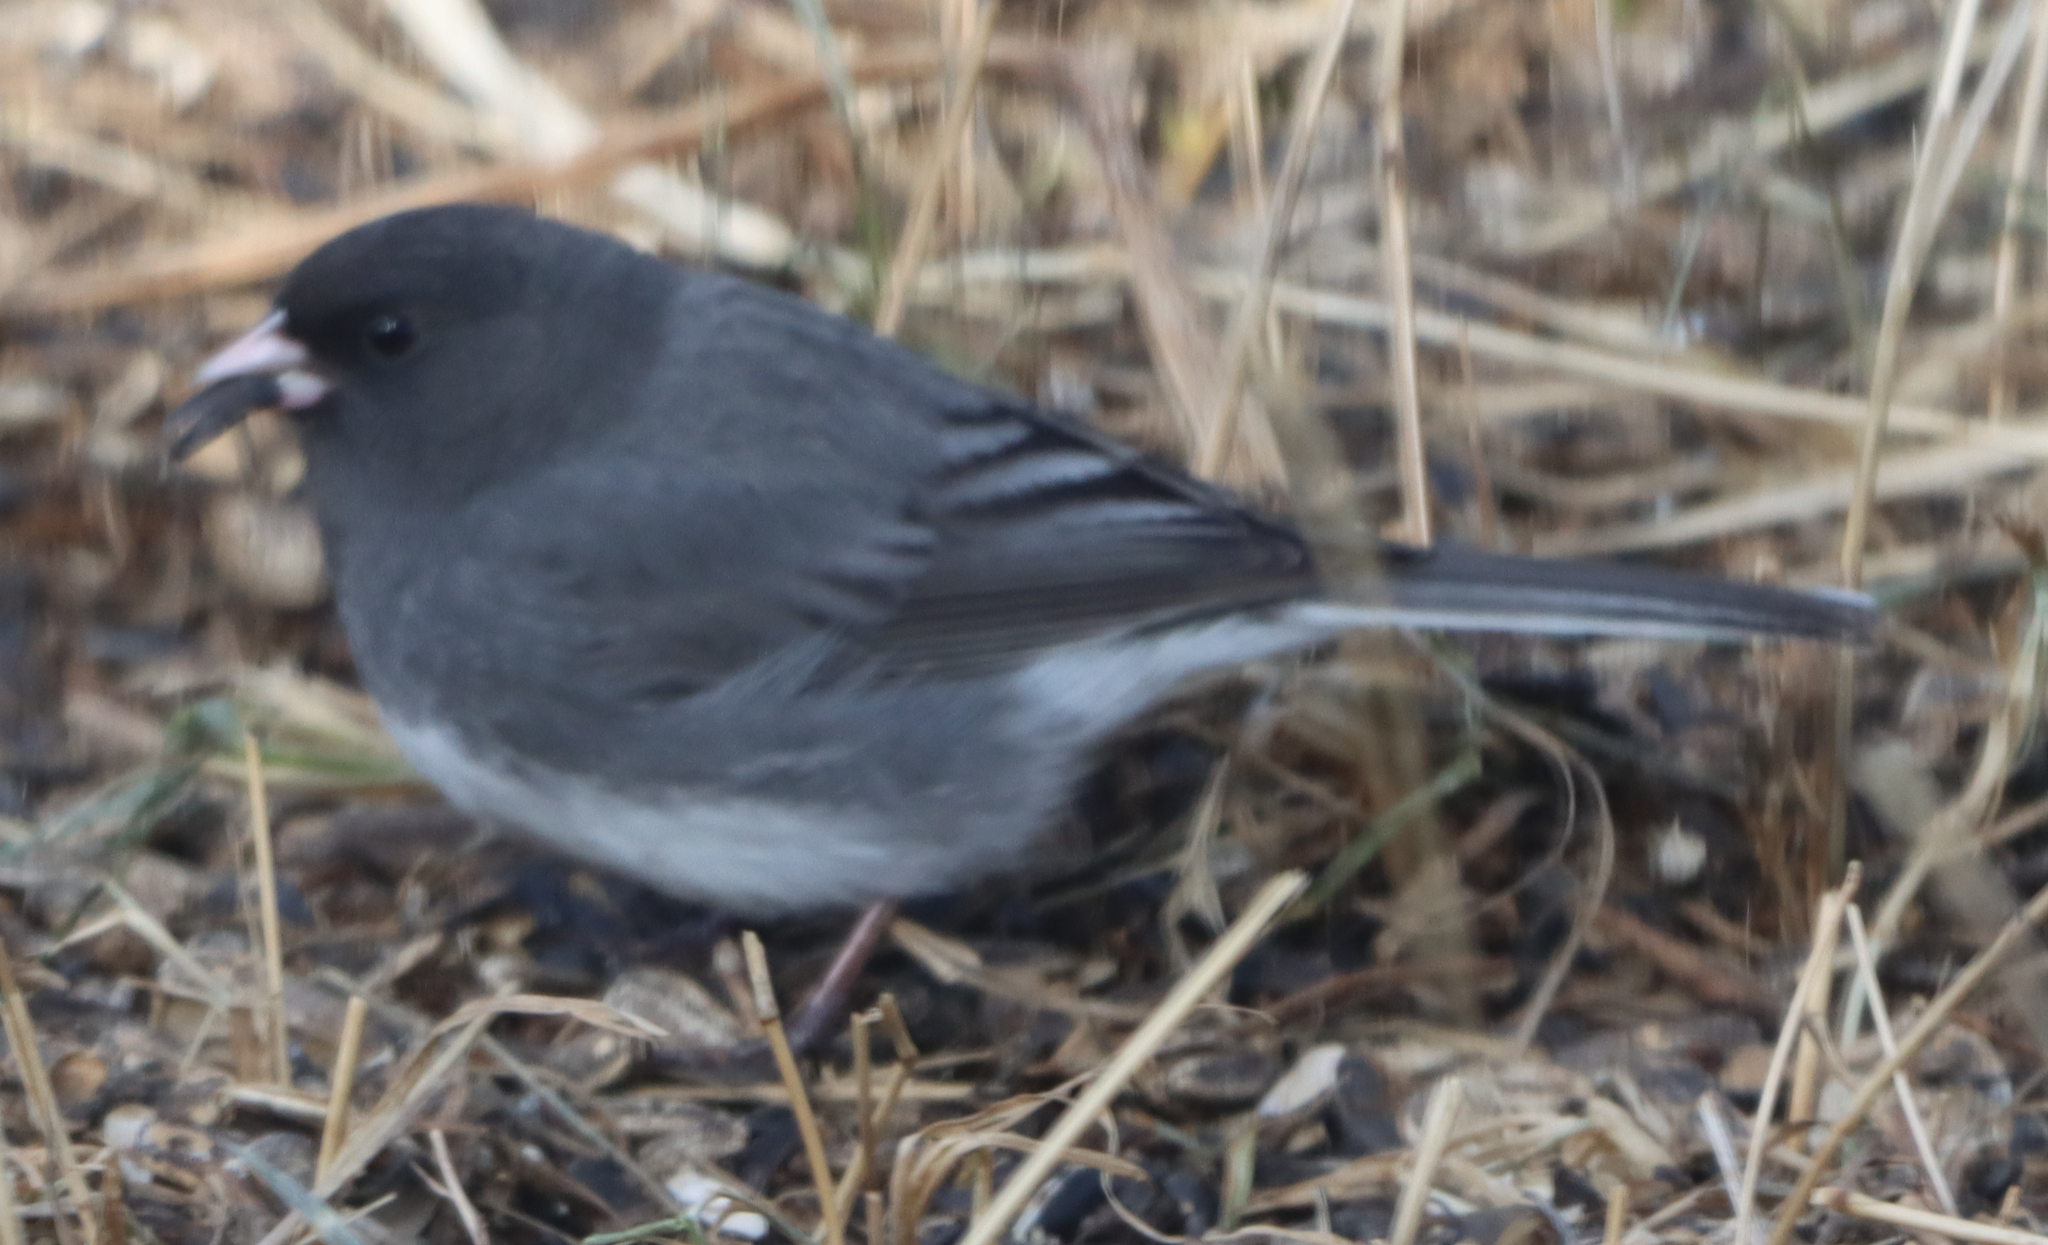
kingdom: Animalia
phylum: Chordata
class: Aves
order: Passeriformes
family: Passerellidae
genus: Junco
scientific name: Junco hyemalis
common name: Dark-eyed junco
